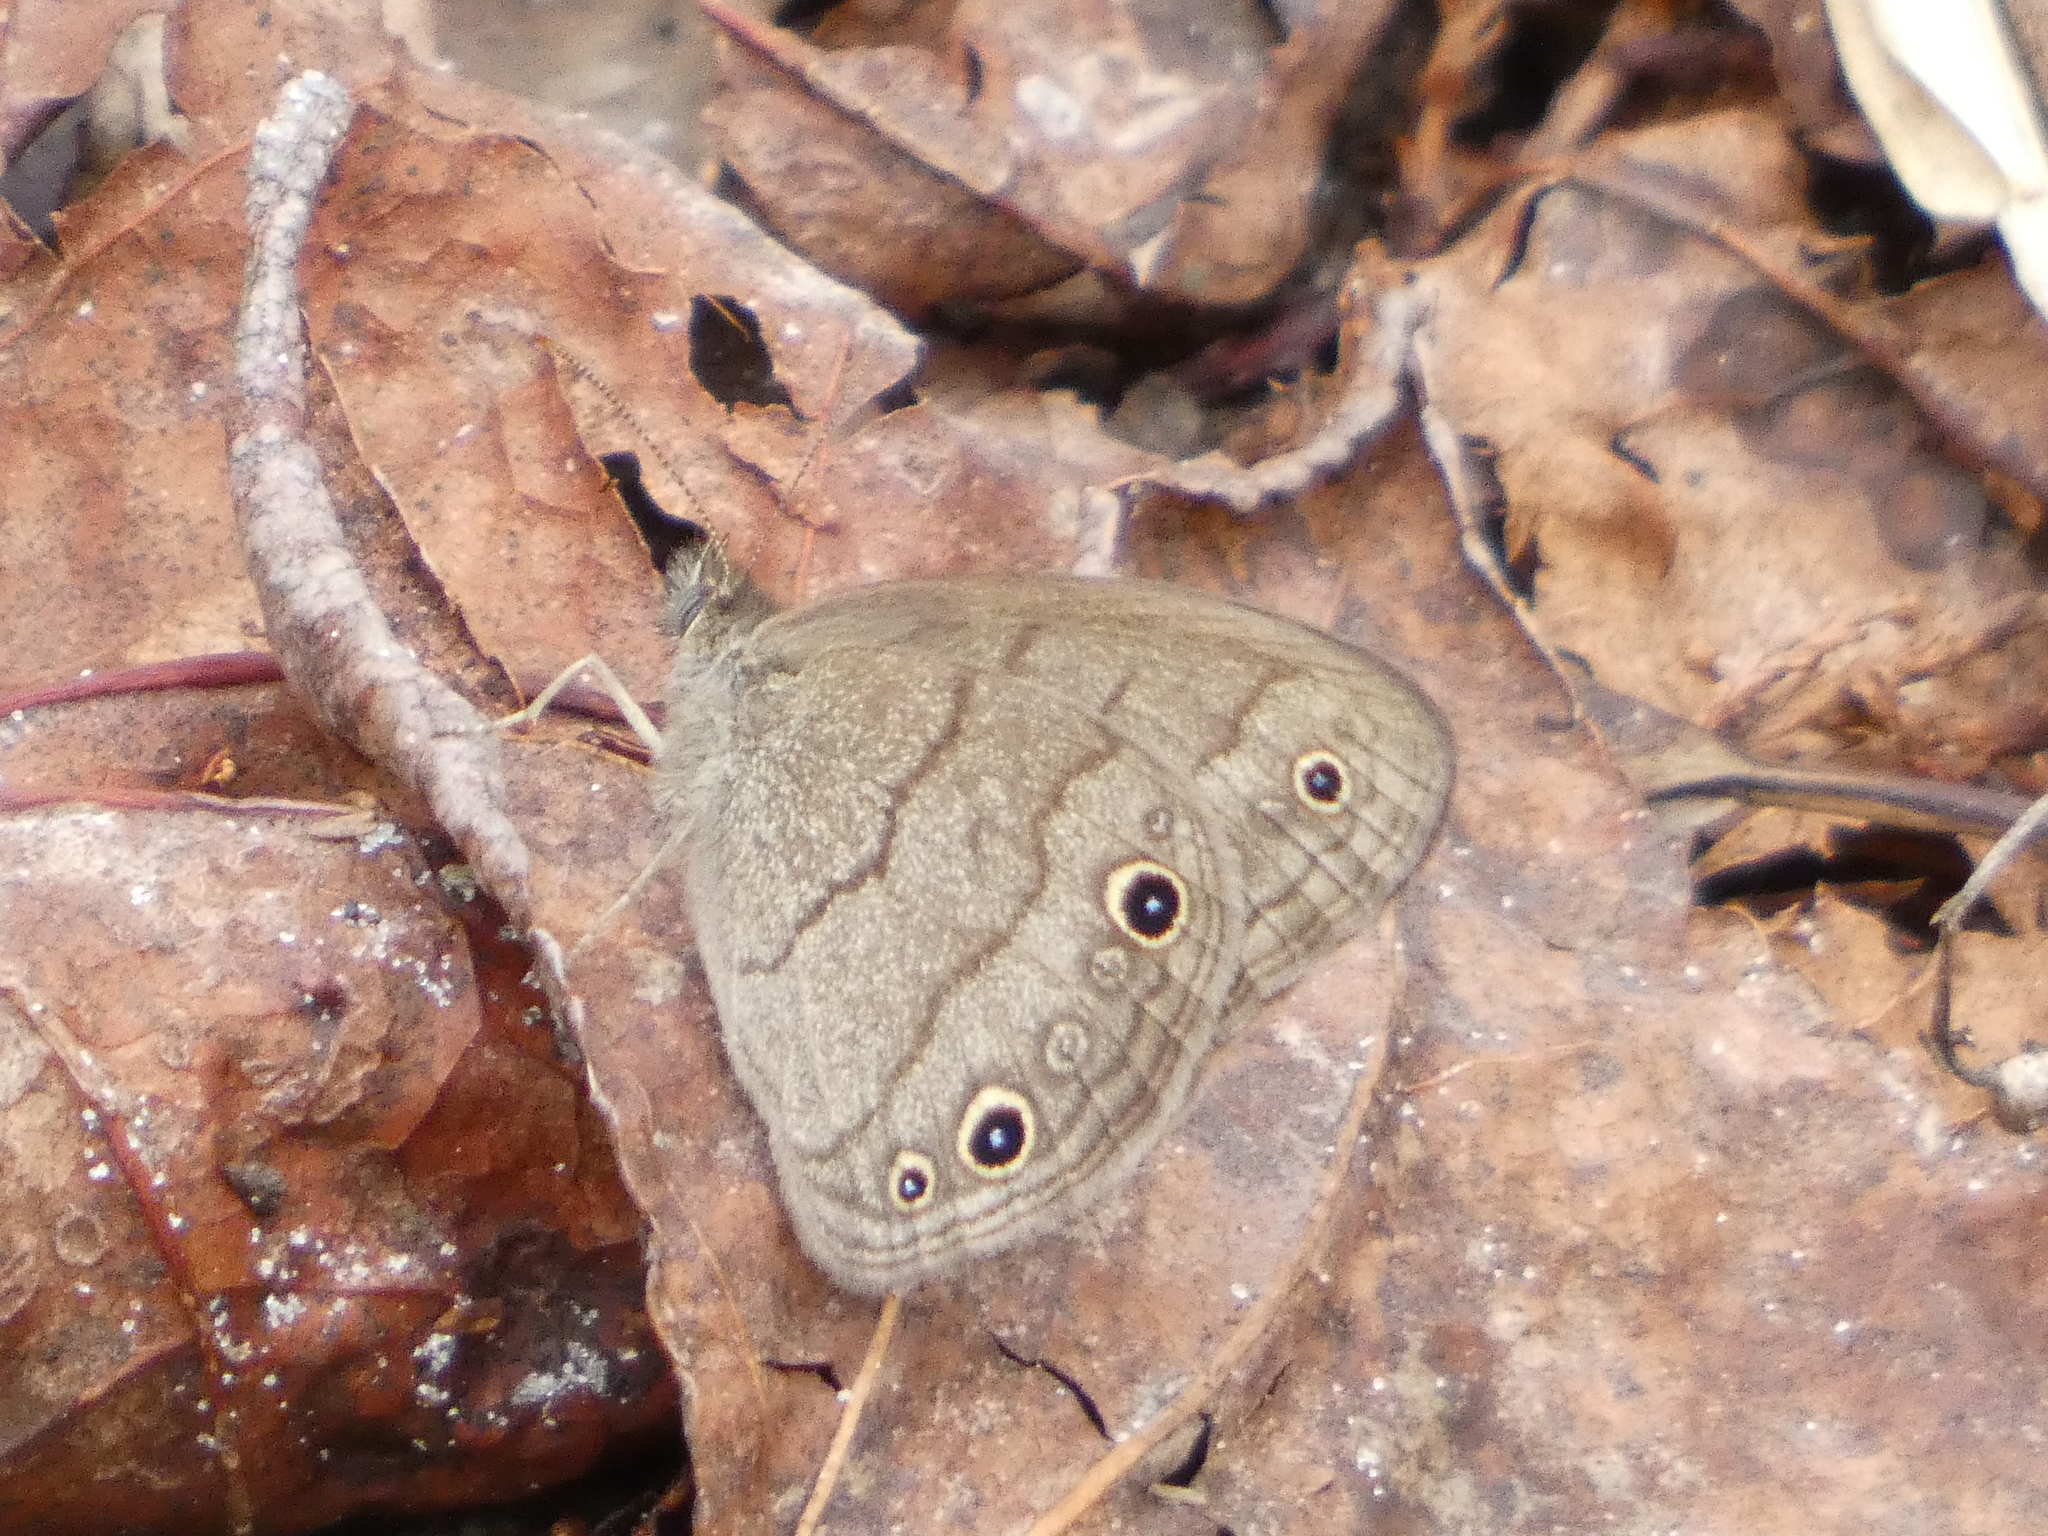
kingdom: Animalia
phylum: Arthropoda
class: Insecta
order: Lepidoptera
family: Nymphalidae
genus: Hermeuptychia
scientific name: Hermeuptychia hermes
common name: Hermes satyr
